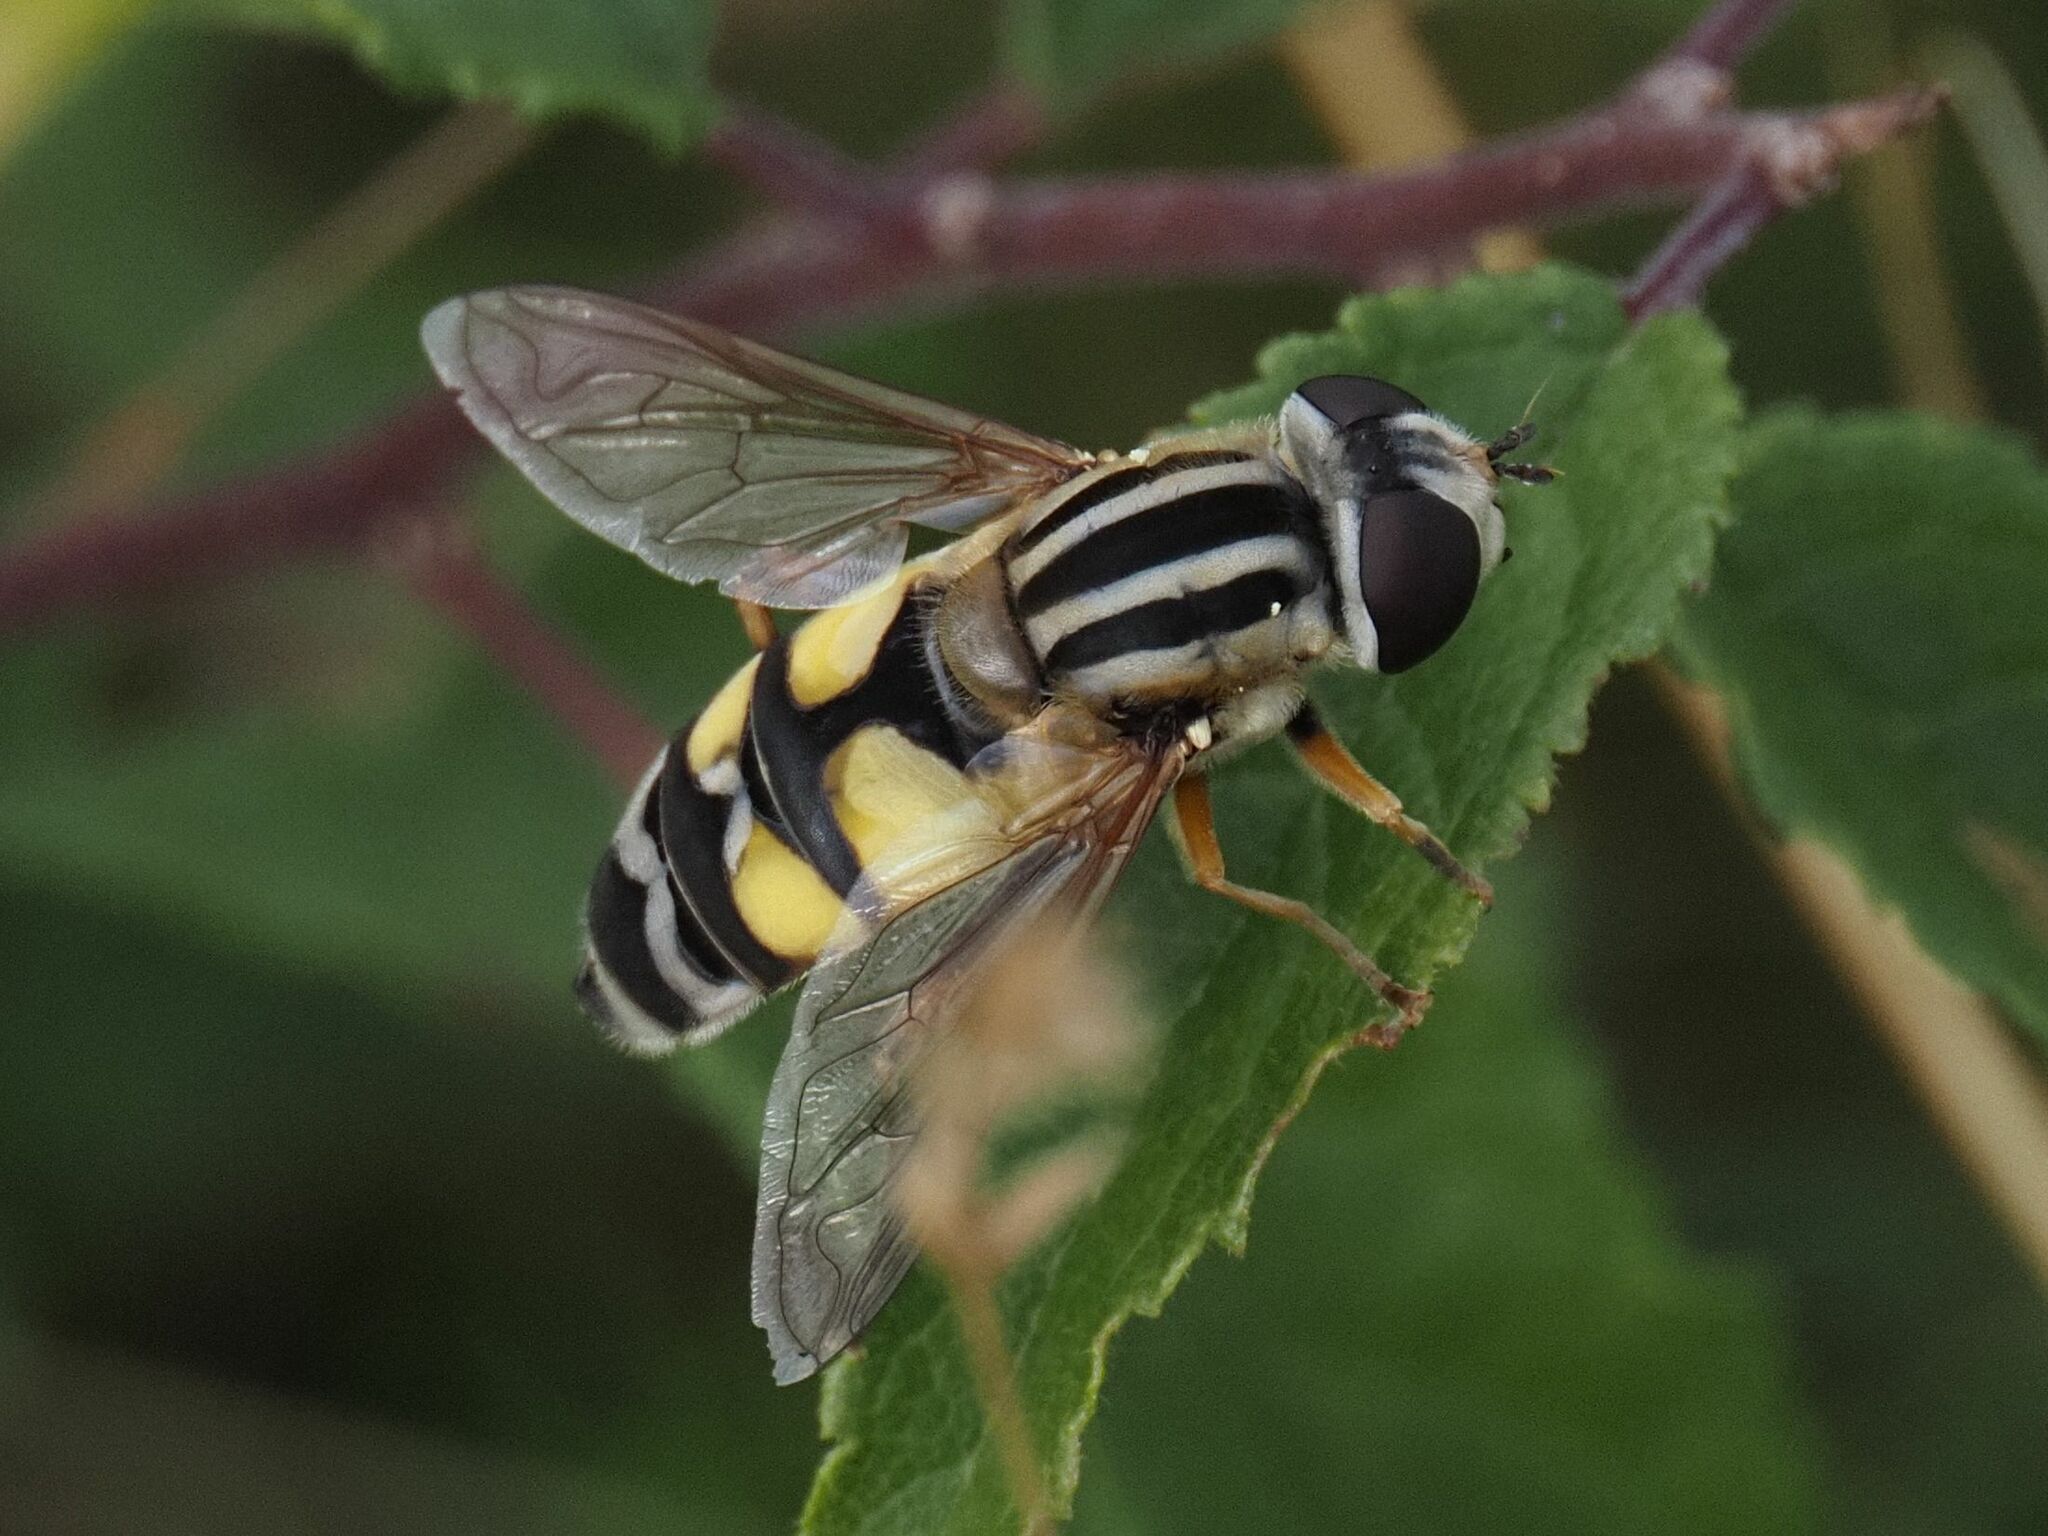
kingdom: Animalia
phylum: Arthropoda
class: Insecta
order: Diptera
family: Syrphidae
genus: Helophilus
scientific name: Helophilus trivittatus
